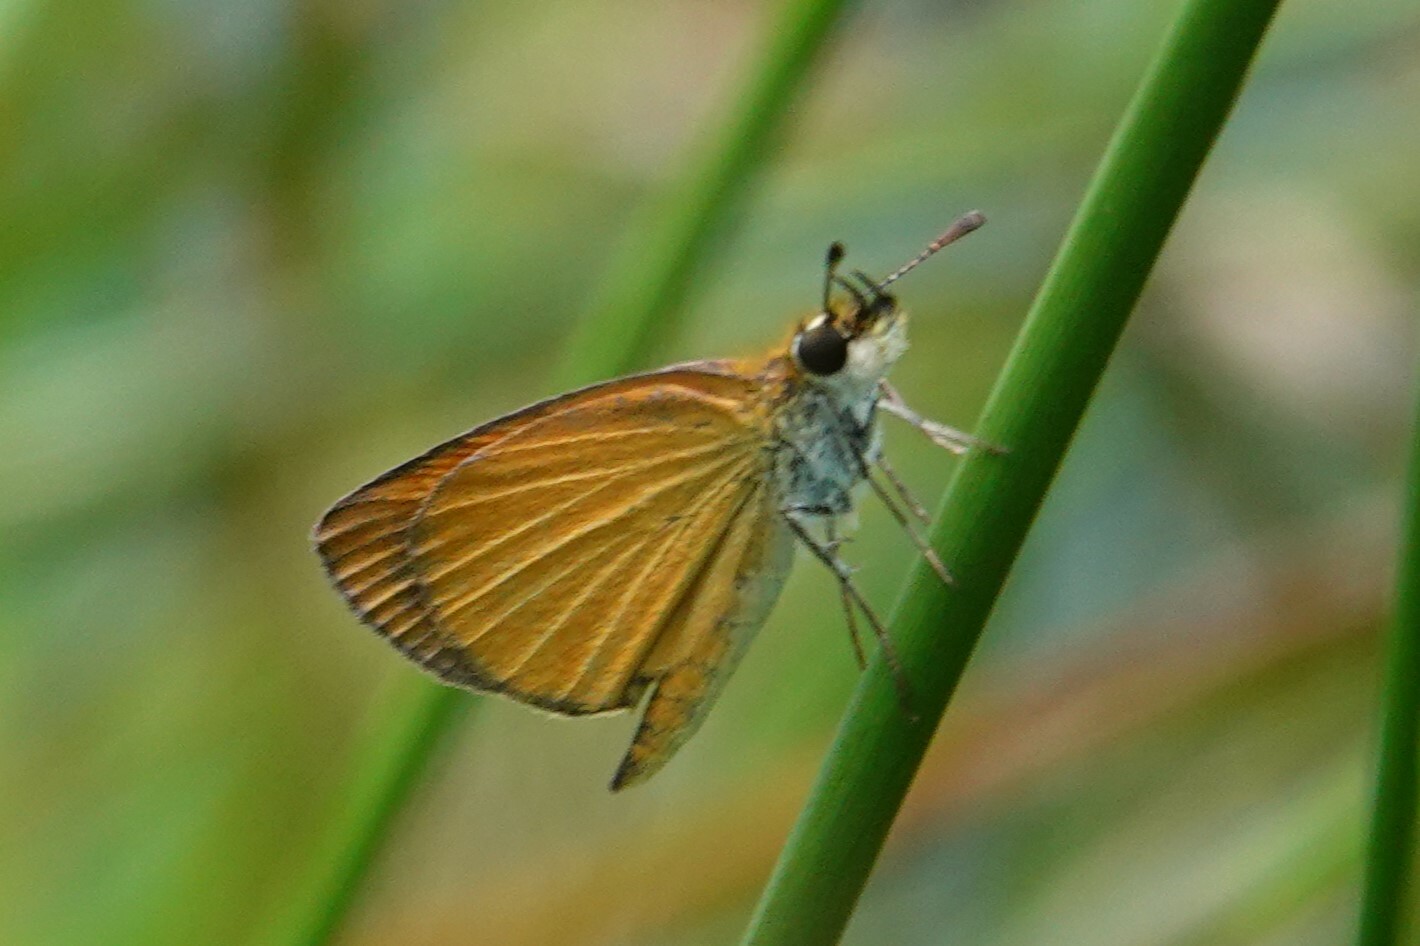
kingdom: Animalia
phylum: Arthropoda
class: Insecta
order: Lepidoptera
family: Hesperiidae
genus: Ancyloxypha
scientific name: Ancyloxypha numitor
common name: Least skipper
